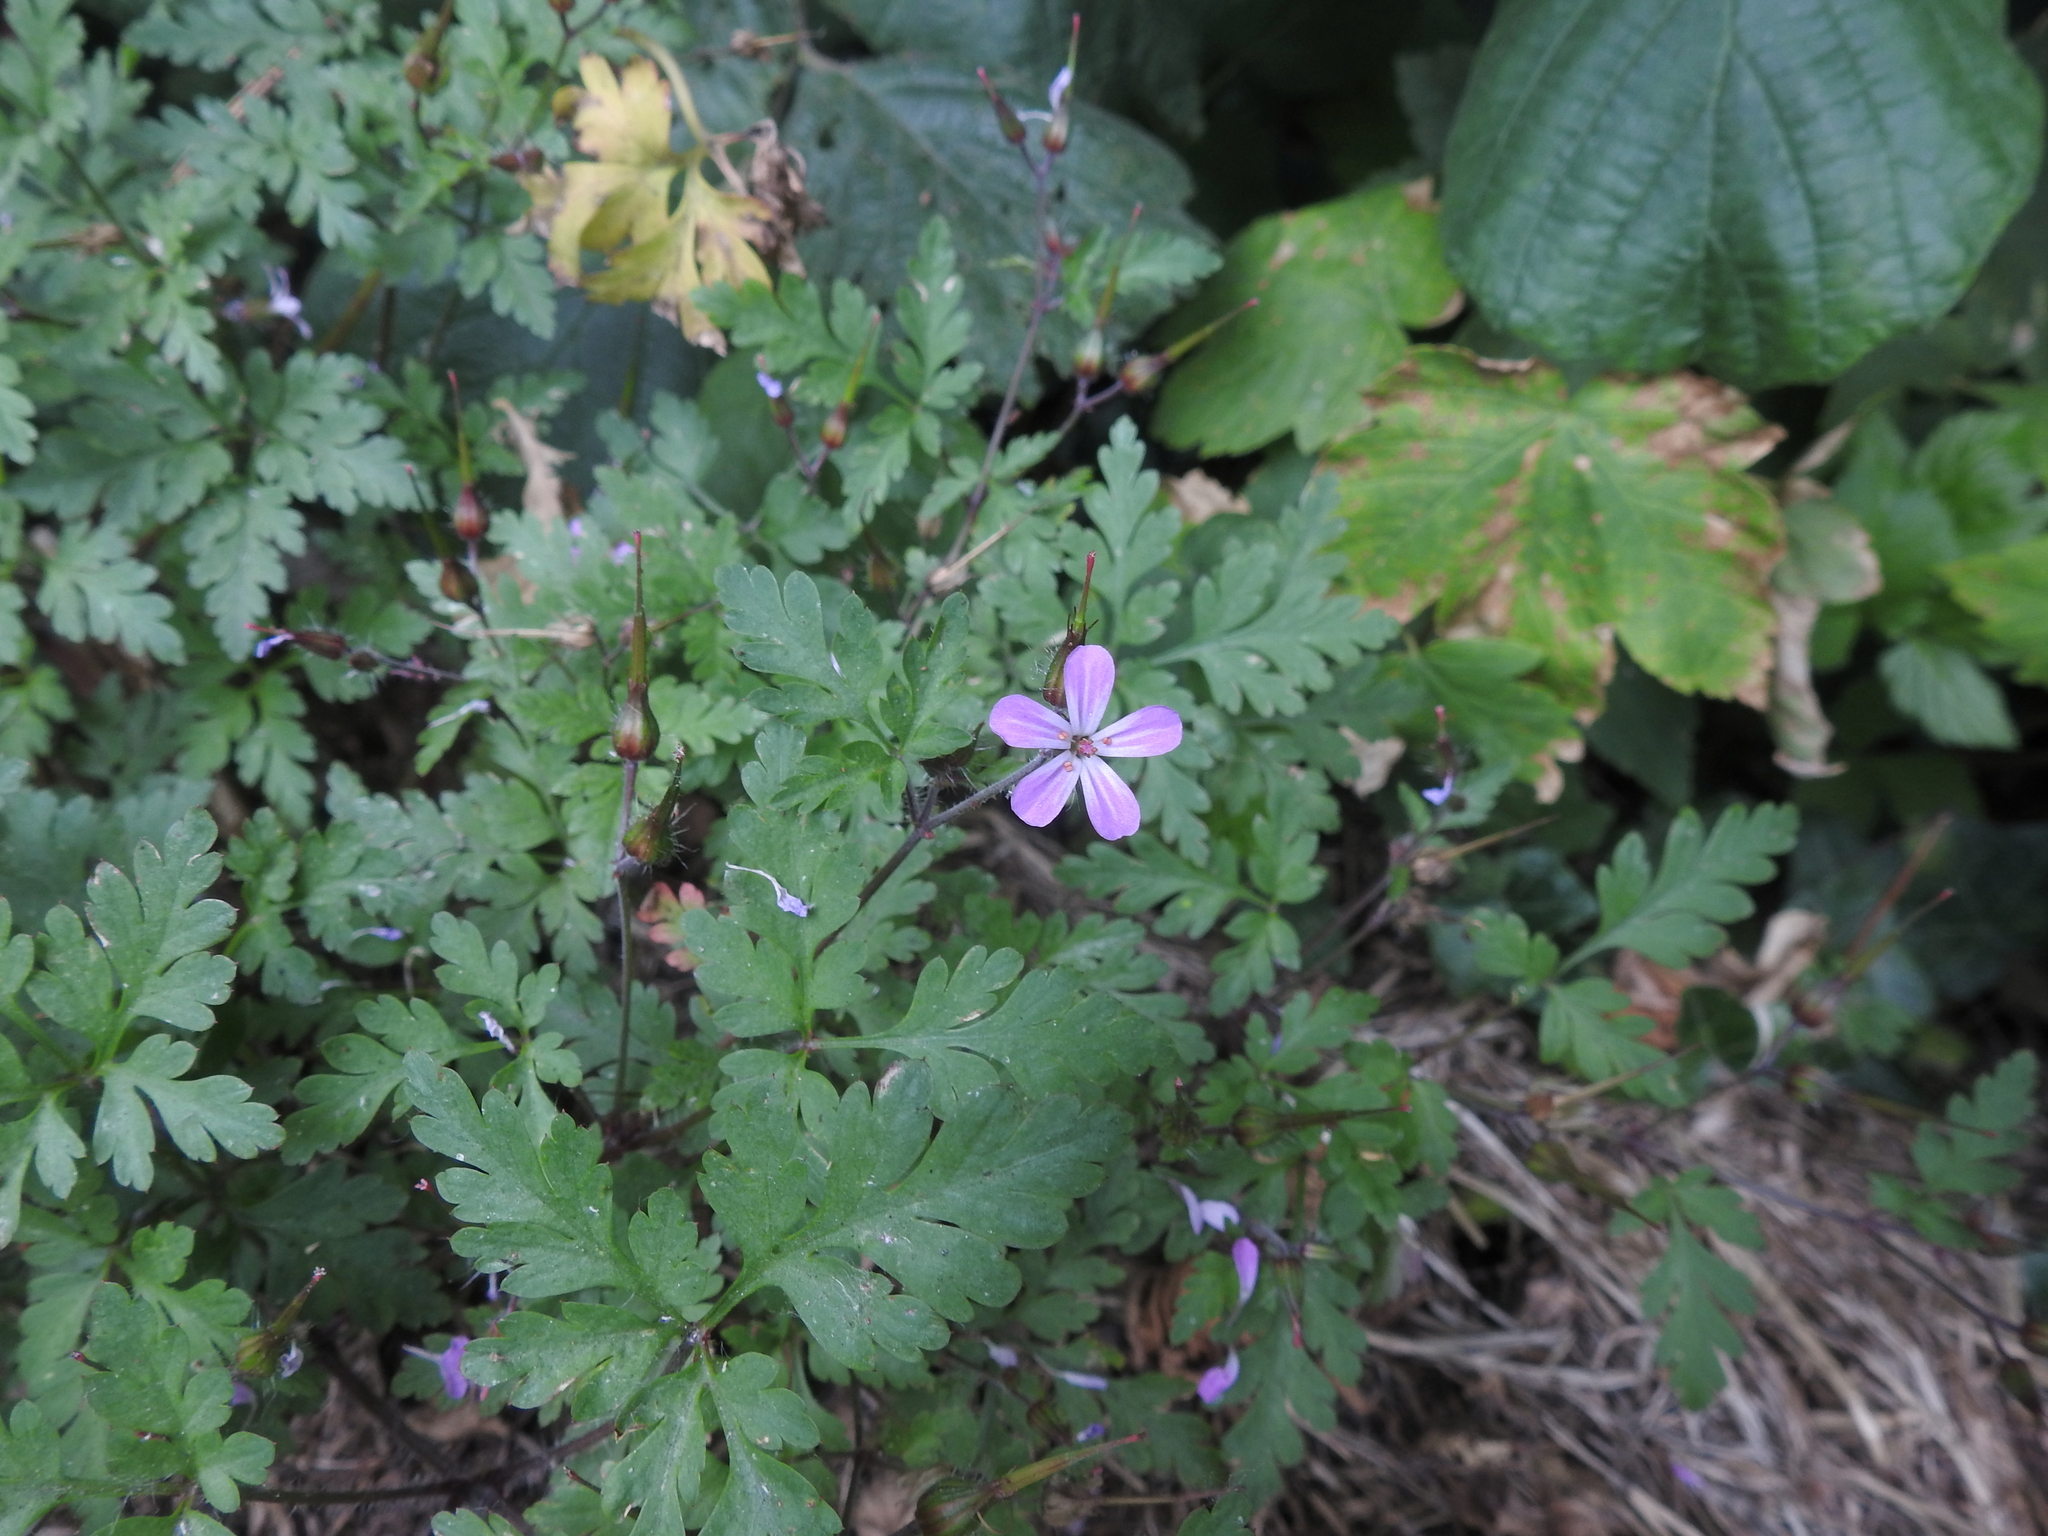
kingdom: Plantae
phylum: Tracheophyta
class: Magnoliopsida
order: Geraniales
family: Geraniaceae
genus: Geranium
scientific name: Geranium robertianum
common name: Herb-robert
